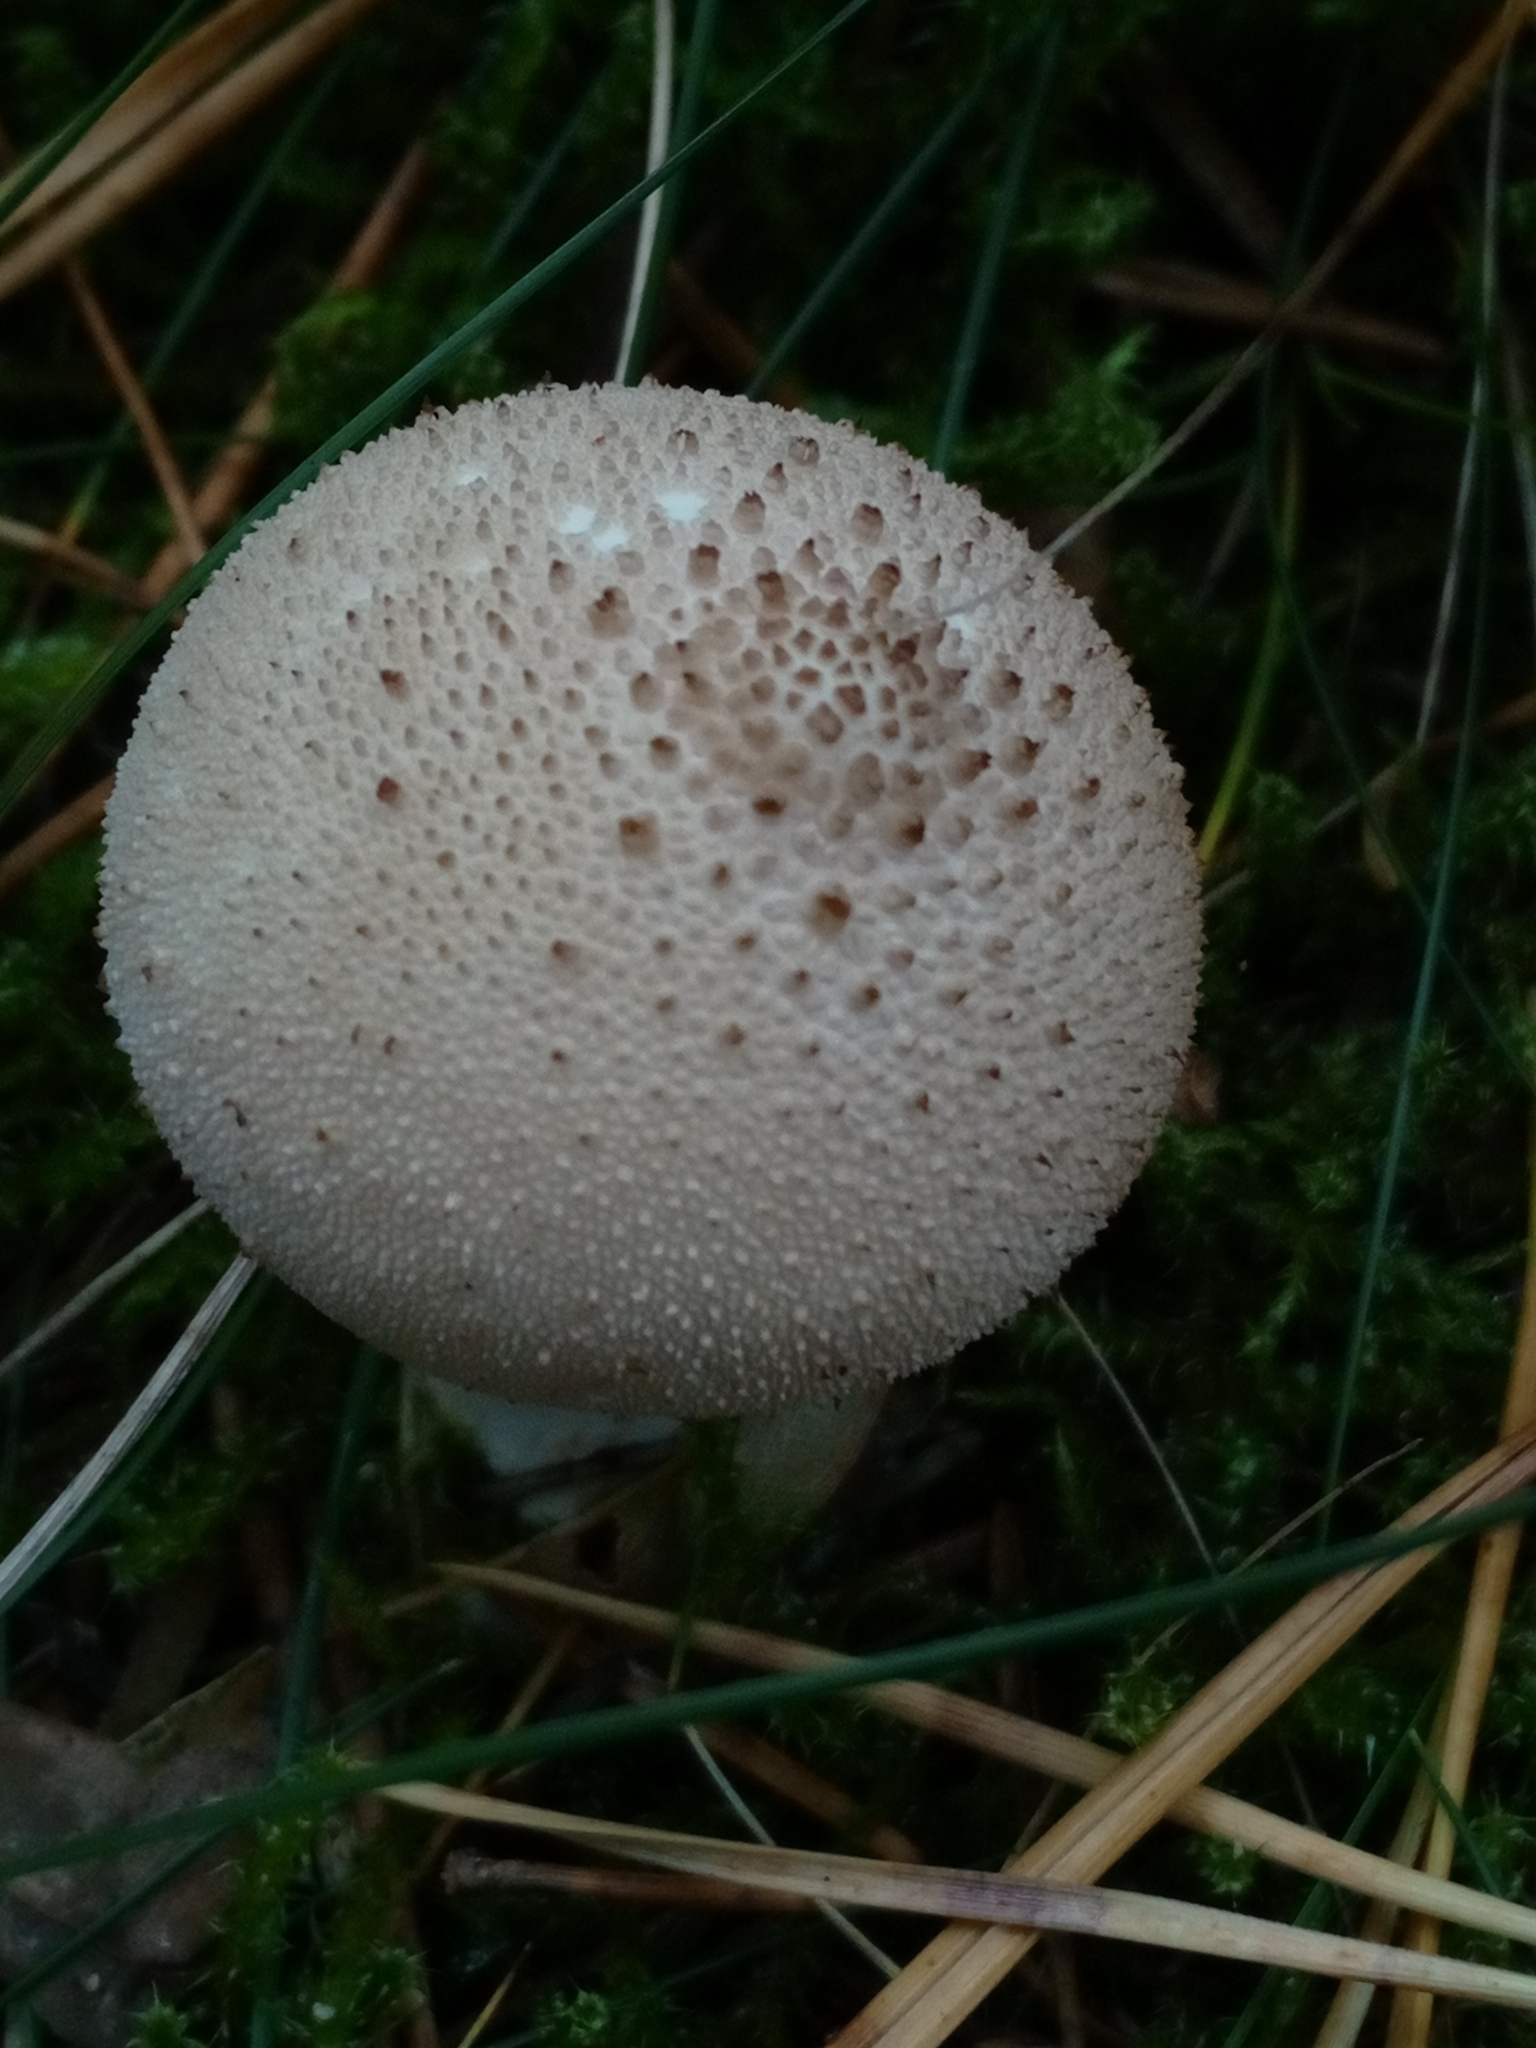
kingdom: Fungi
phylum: Basidiomycota
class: Agaricomycetes
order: Agaricales
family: Lycoperdaceae
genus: Lycoperdon
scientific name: Lycoperdon perlatum
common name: Common puffball
